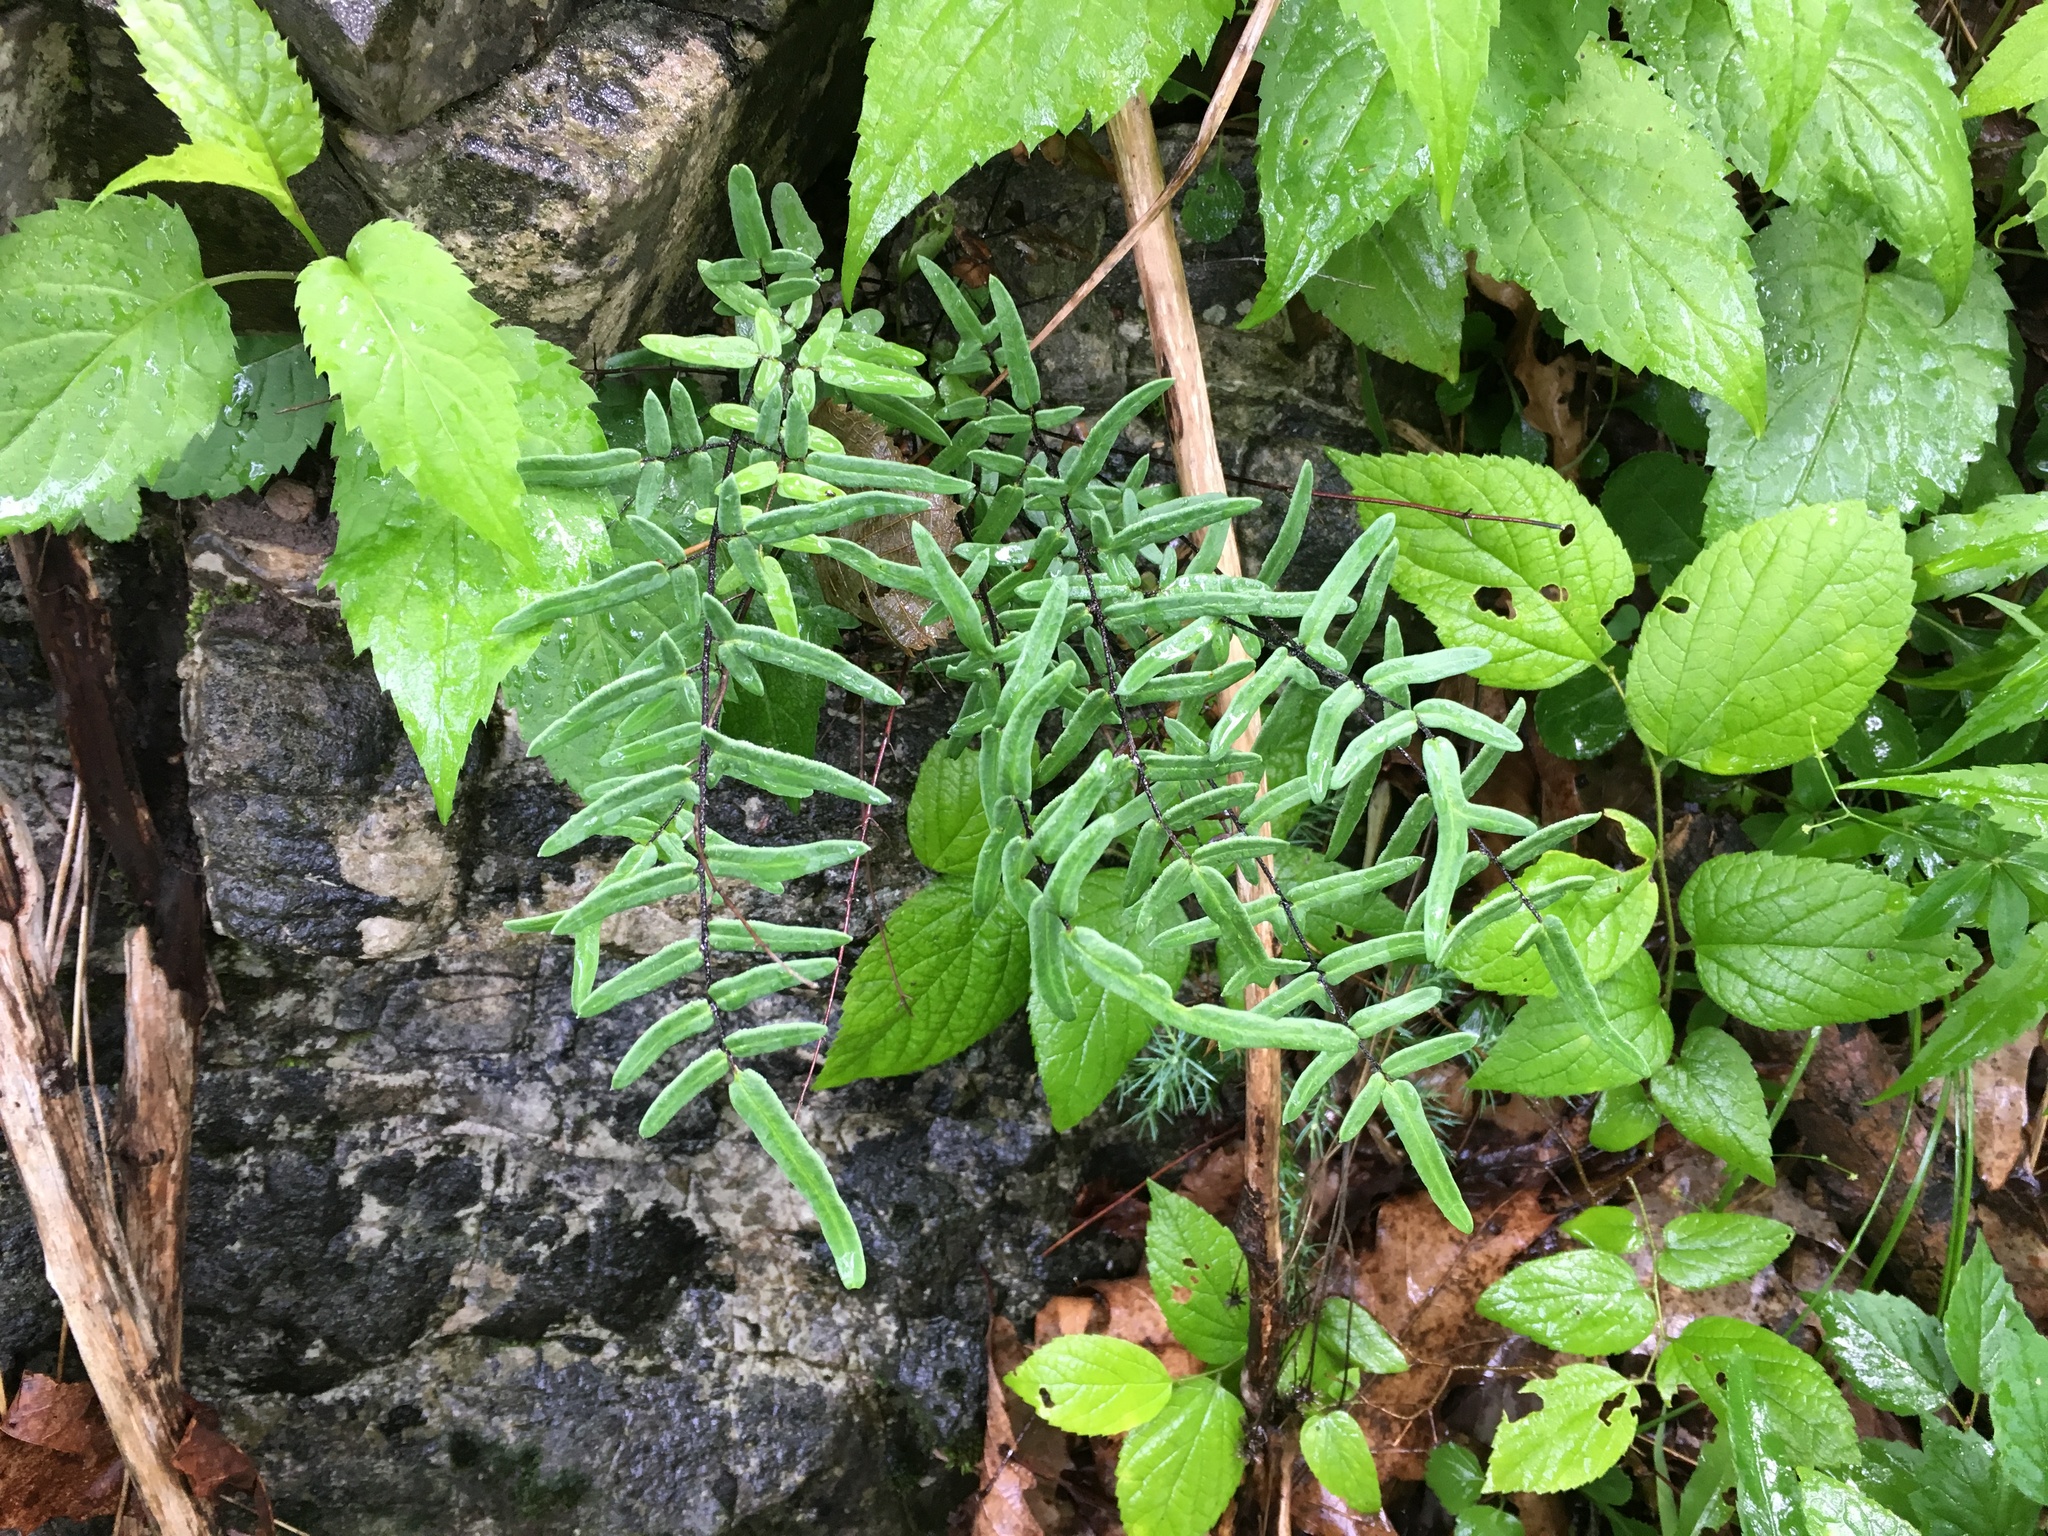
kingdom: Plantae
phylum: Tracheophyta
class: Polypodiopsida
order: Polypodiales
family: Pteridaceae
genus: Pellaea
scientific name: Pellaea atropurpurea
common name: Hairy cliffbrake
